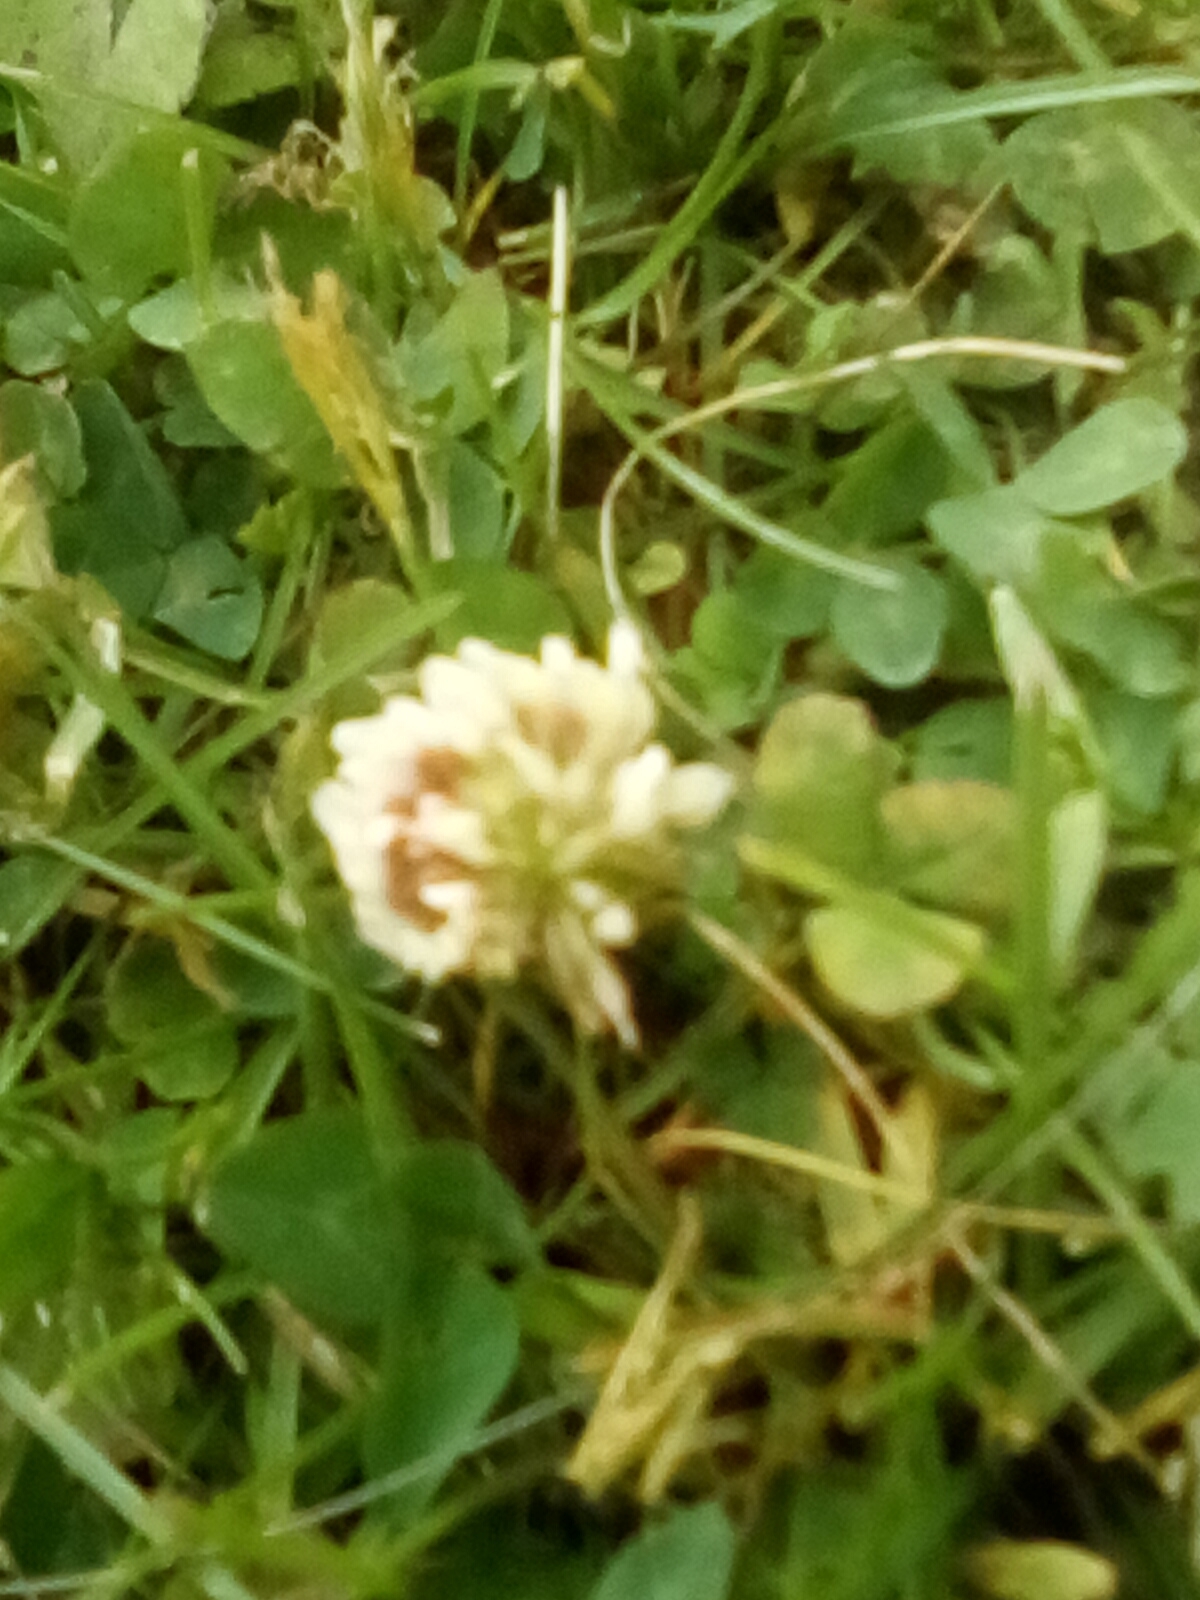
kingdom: Plantae
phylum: Tracheophyta
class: Magnoliopsida
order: Fabales
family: Fabaceae
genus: Trifolium
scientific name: Trifolium repens
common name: White clover
